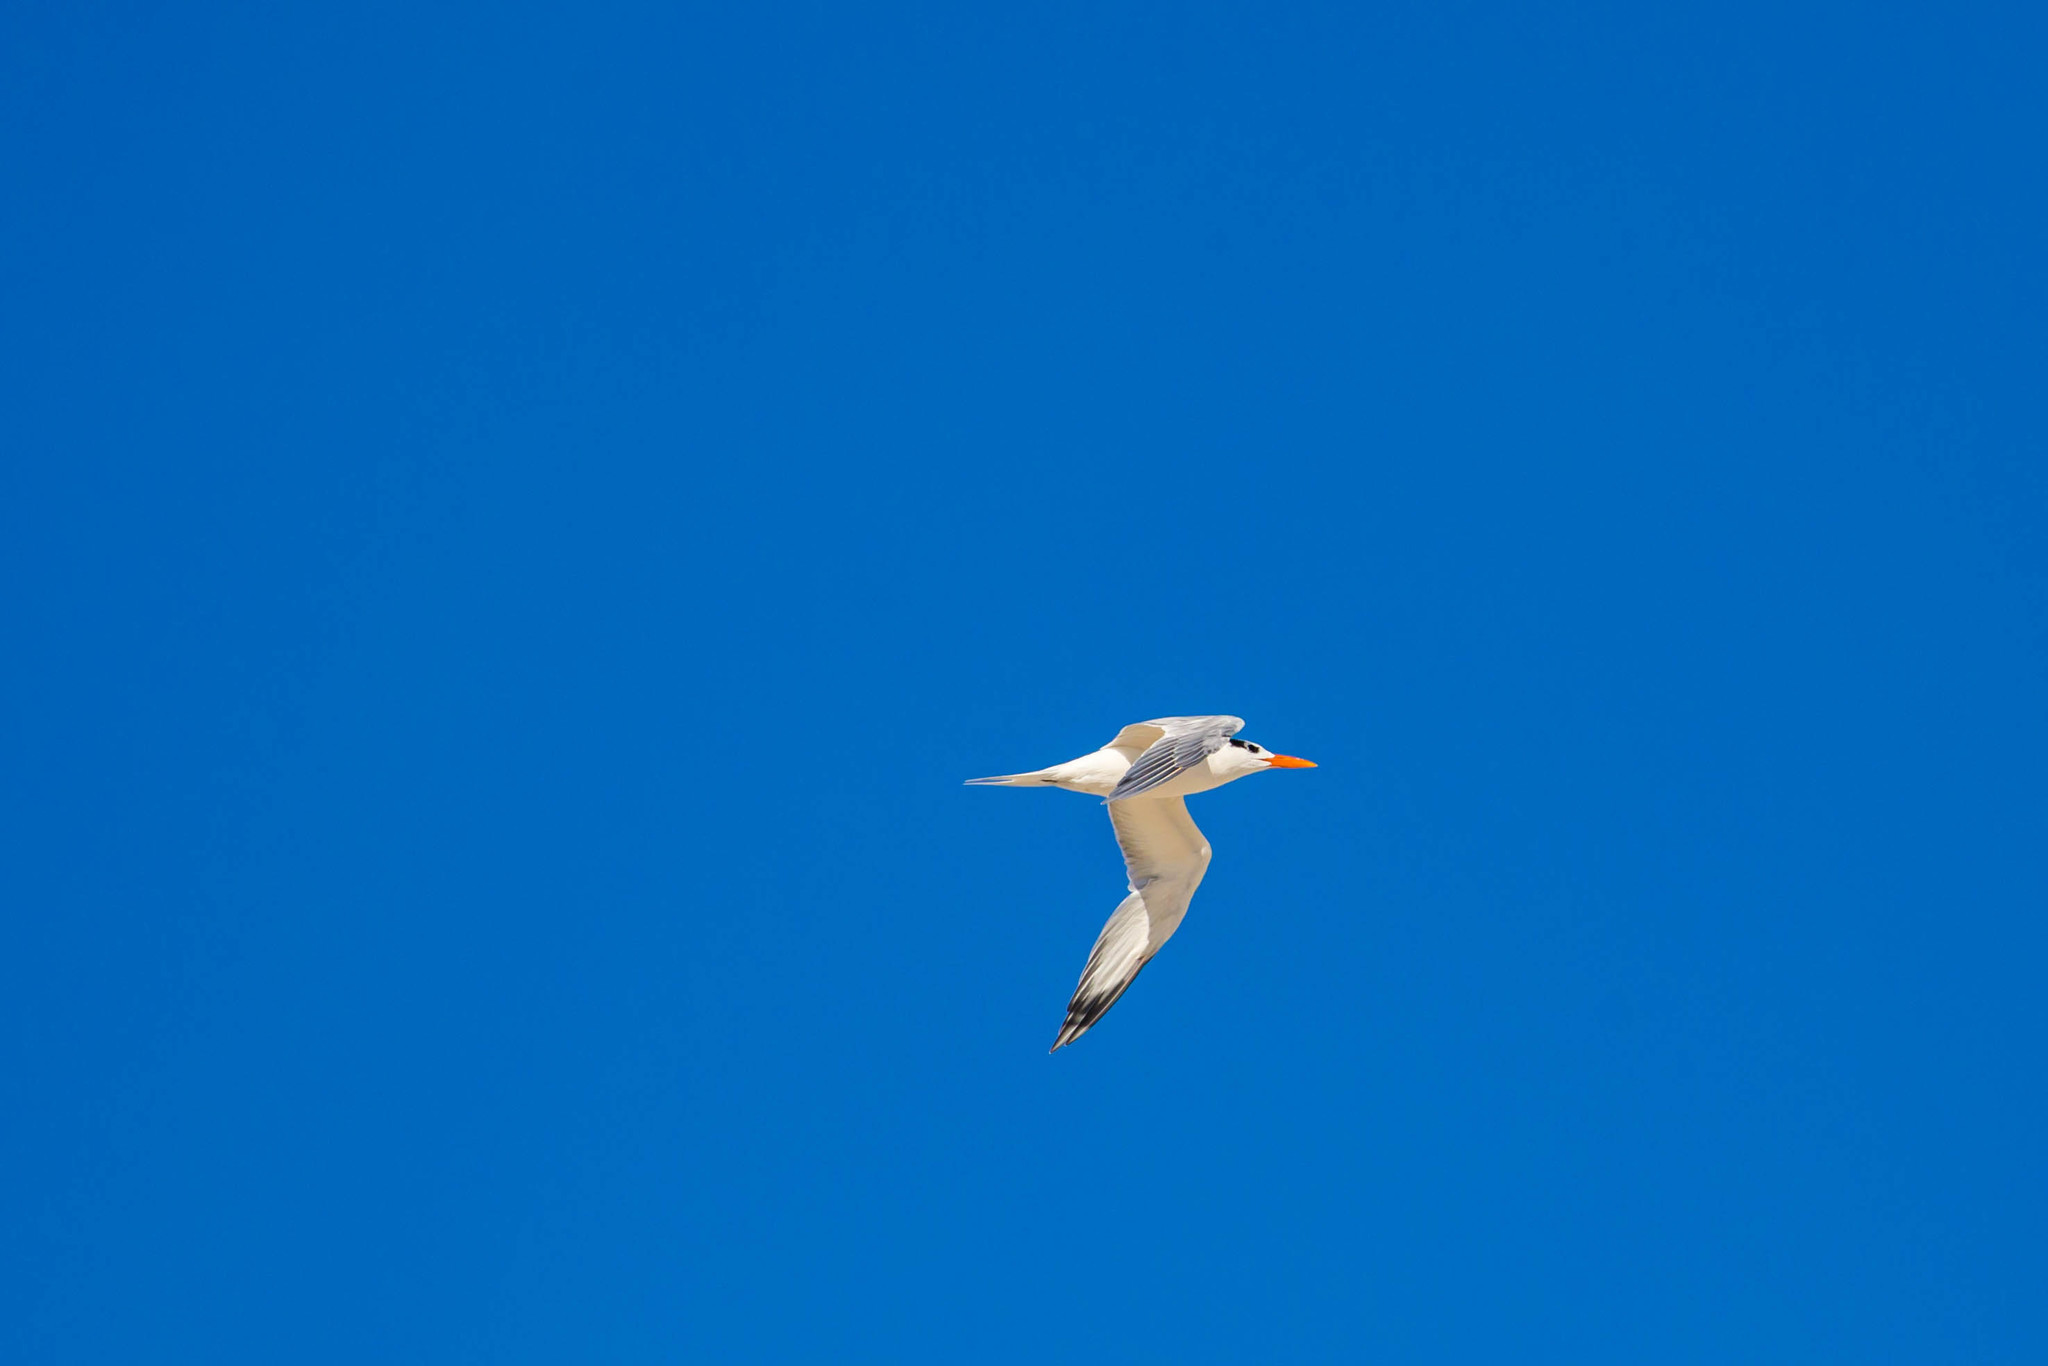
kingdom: Animalia
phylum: Chordata
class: Aves
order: Charadriiformes
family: Laridae
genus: Thalasseus
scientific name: Thalasseus maximus
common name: Royal tern
